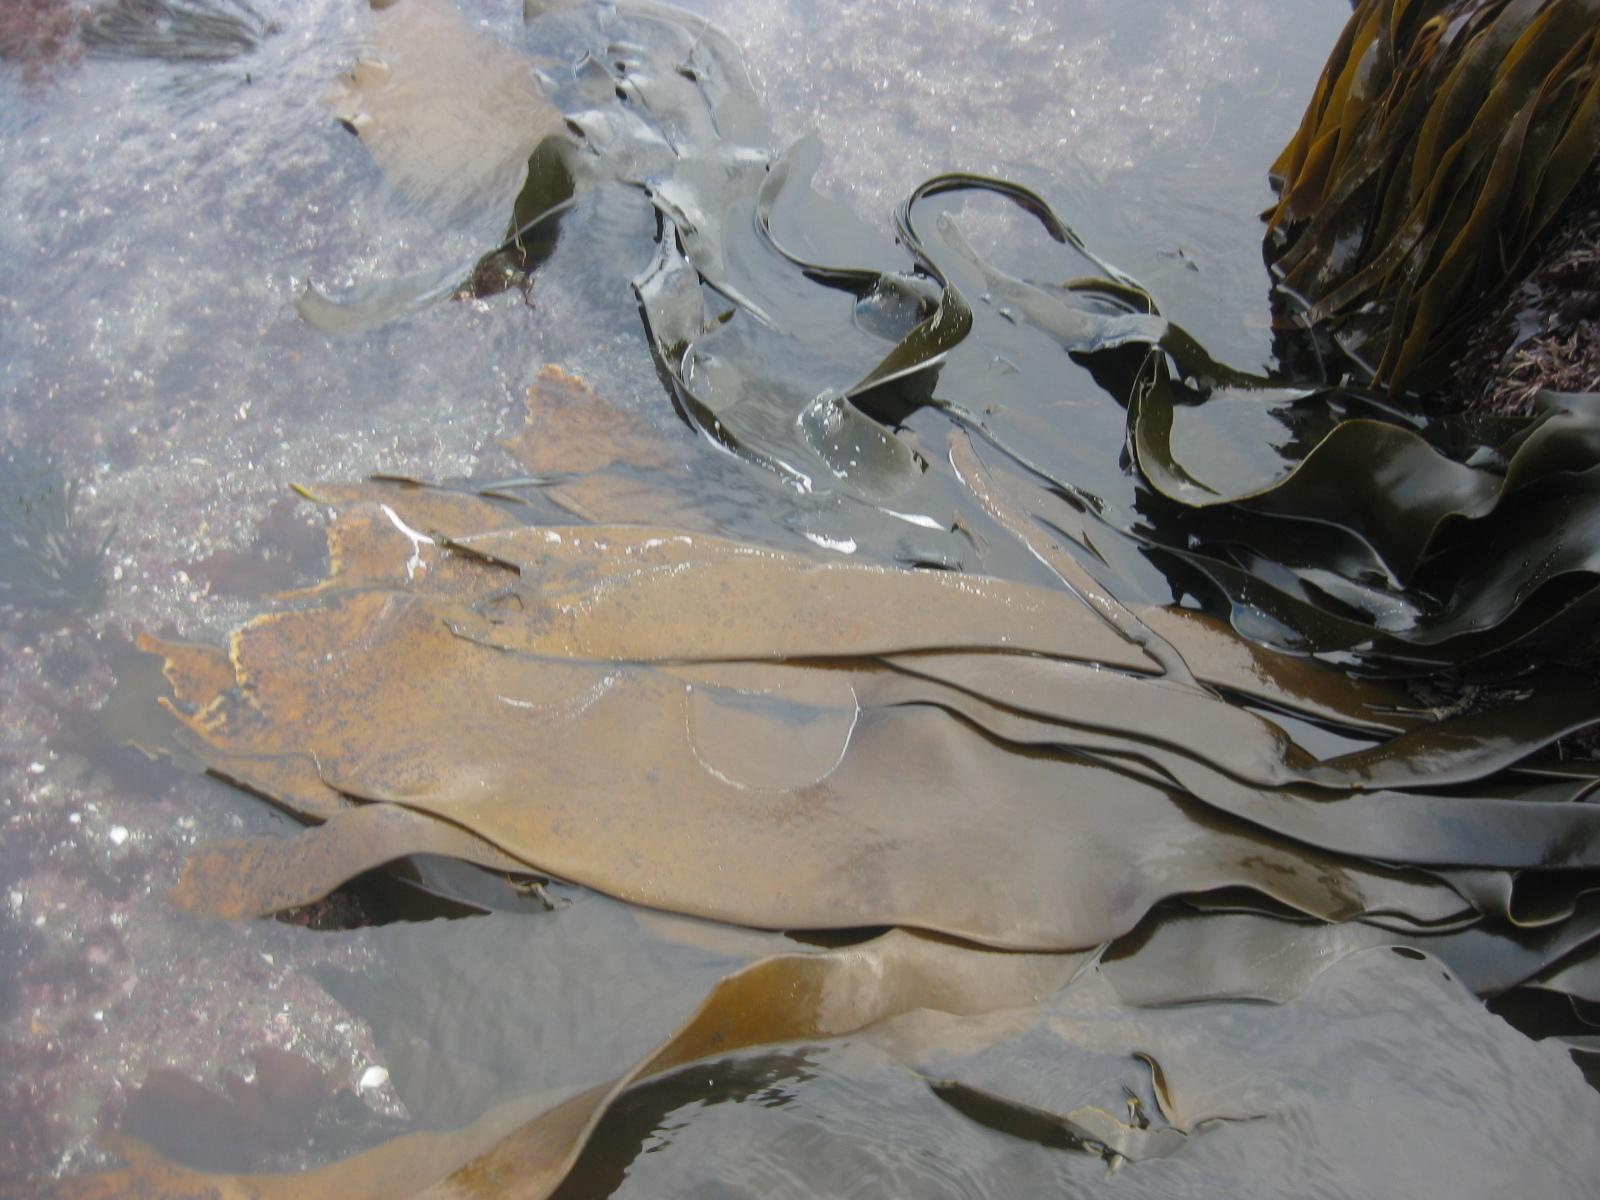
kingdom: Chromista
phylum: Ochrophyta
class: Phaeophyceae
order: Fucales
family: Durvillaeaceae
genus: Durvillaea
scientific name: Durvillaea antarctica
